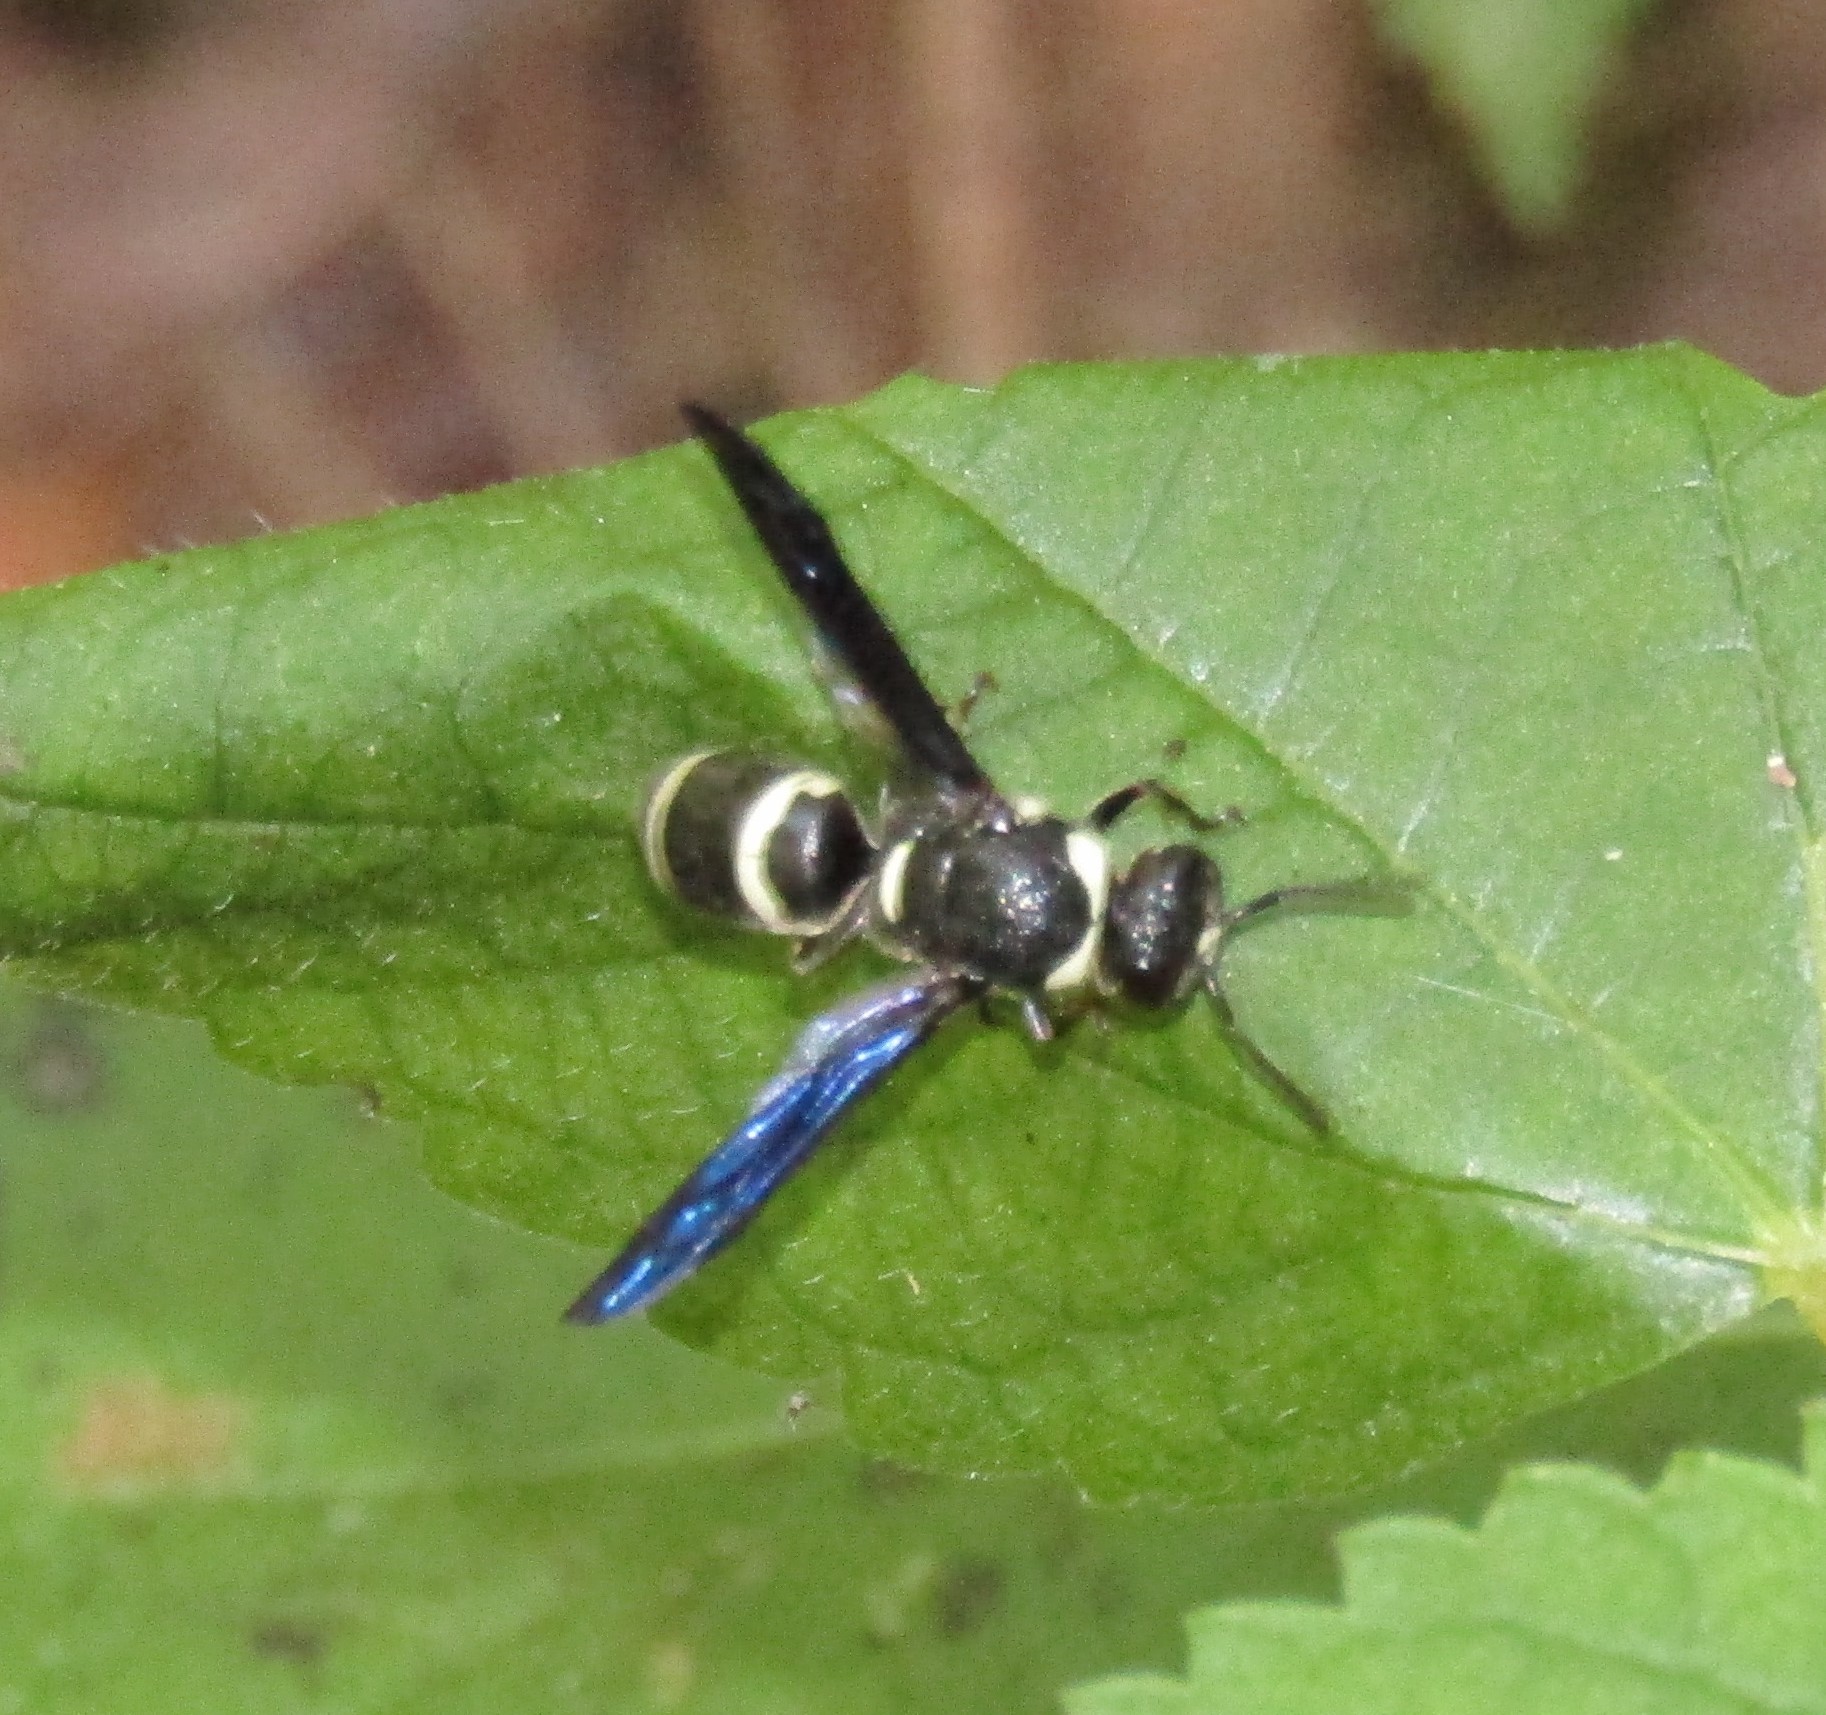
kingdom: Animalia
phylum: Arthropoda
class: Insecta
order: Hymenoptera
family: Eumenidae
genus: Euodynerus
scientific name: Euodynerus schwarzi
